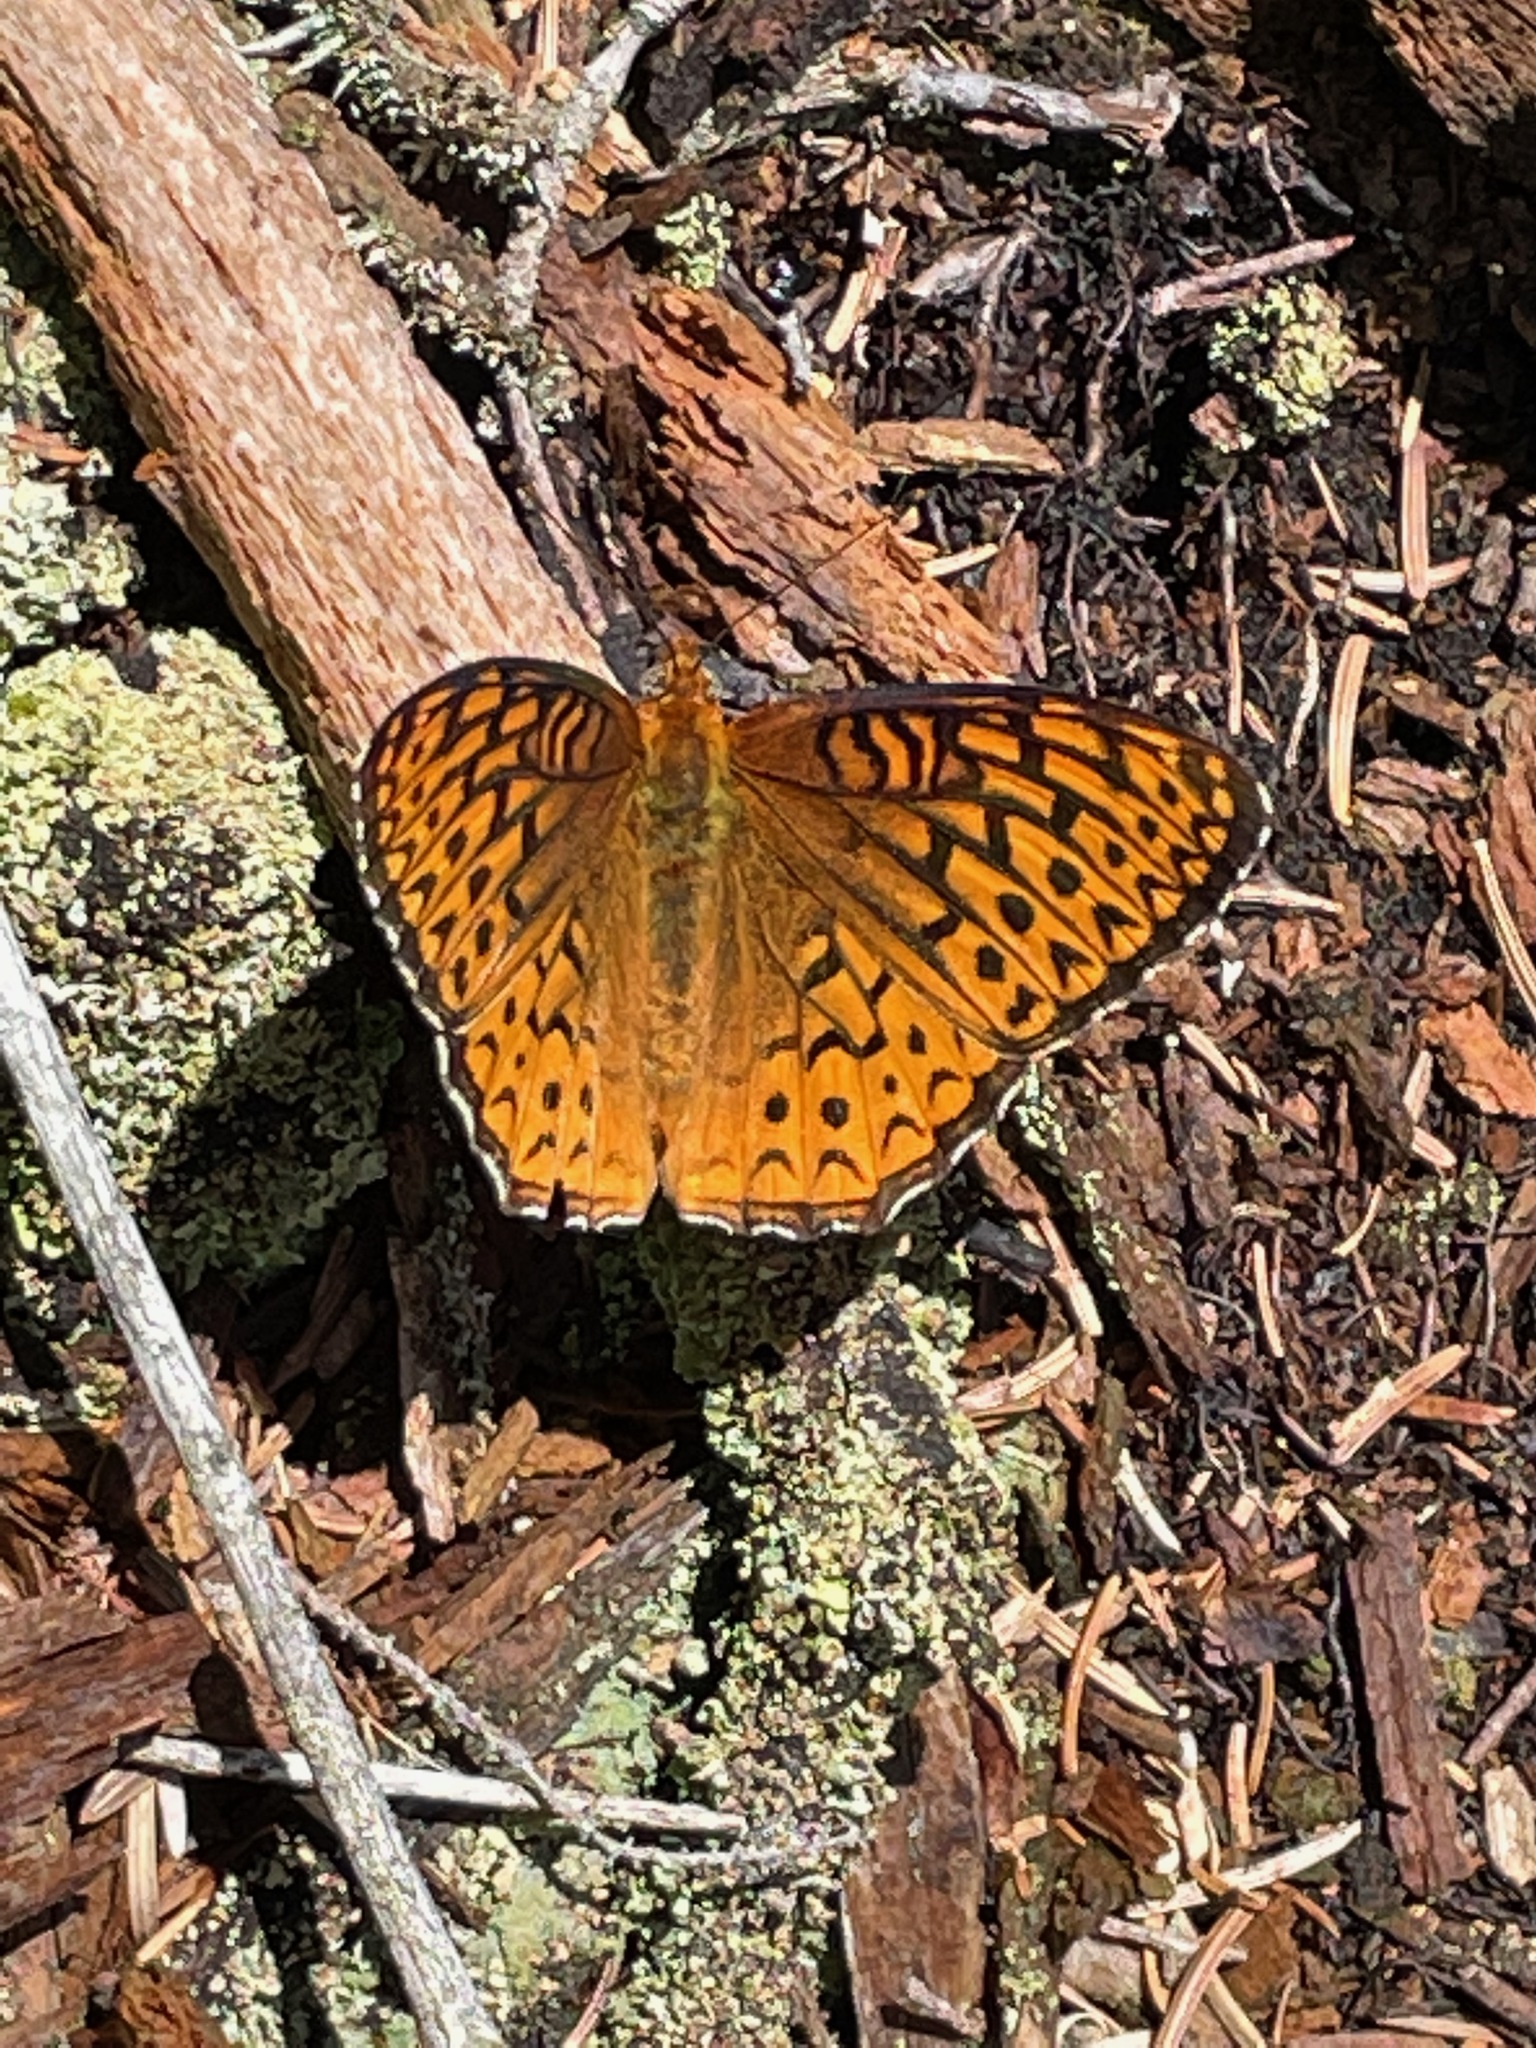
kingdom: Animalia
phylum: Arthropoda
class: Insecta
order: Lepidoptera
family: Nymphalidae
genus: Speyeria
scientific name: Speyeria atlantis
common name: Atlantis fritillary
